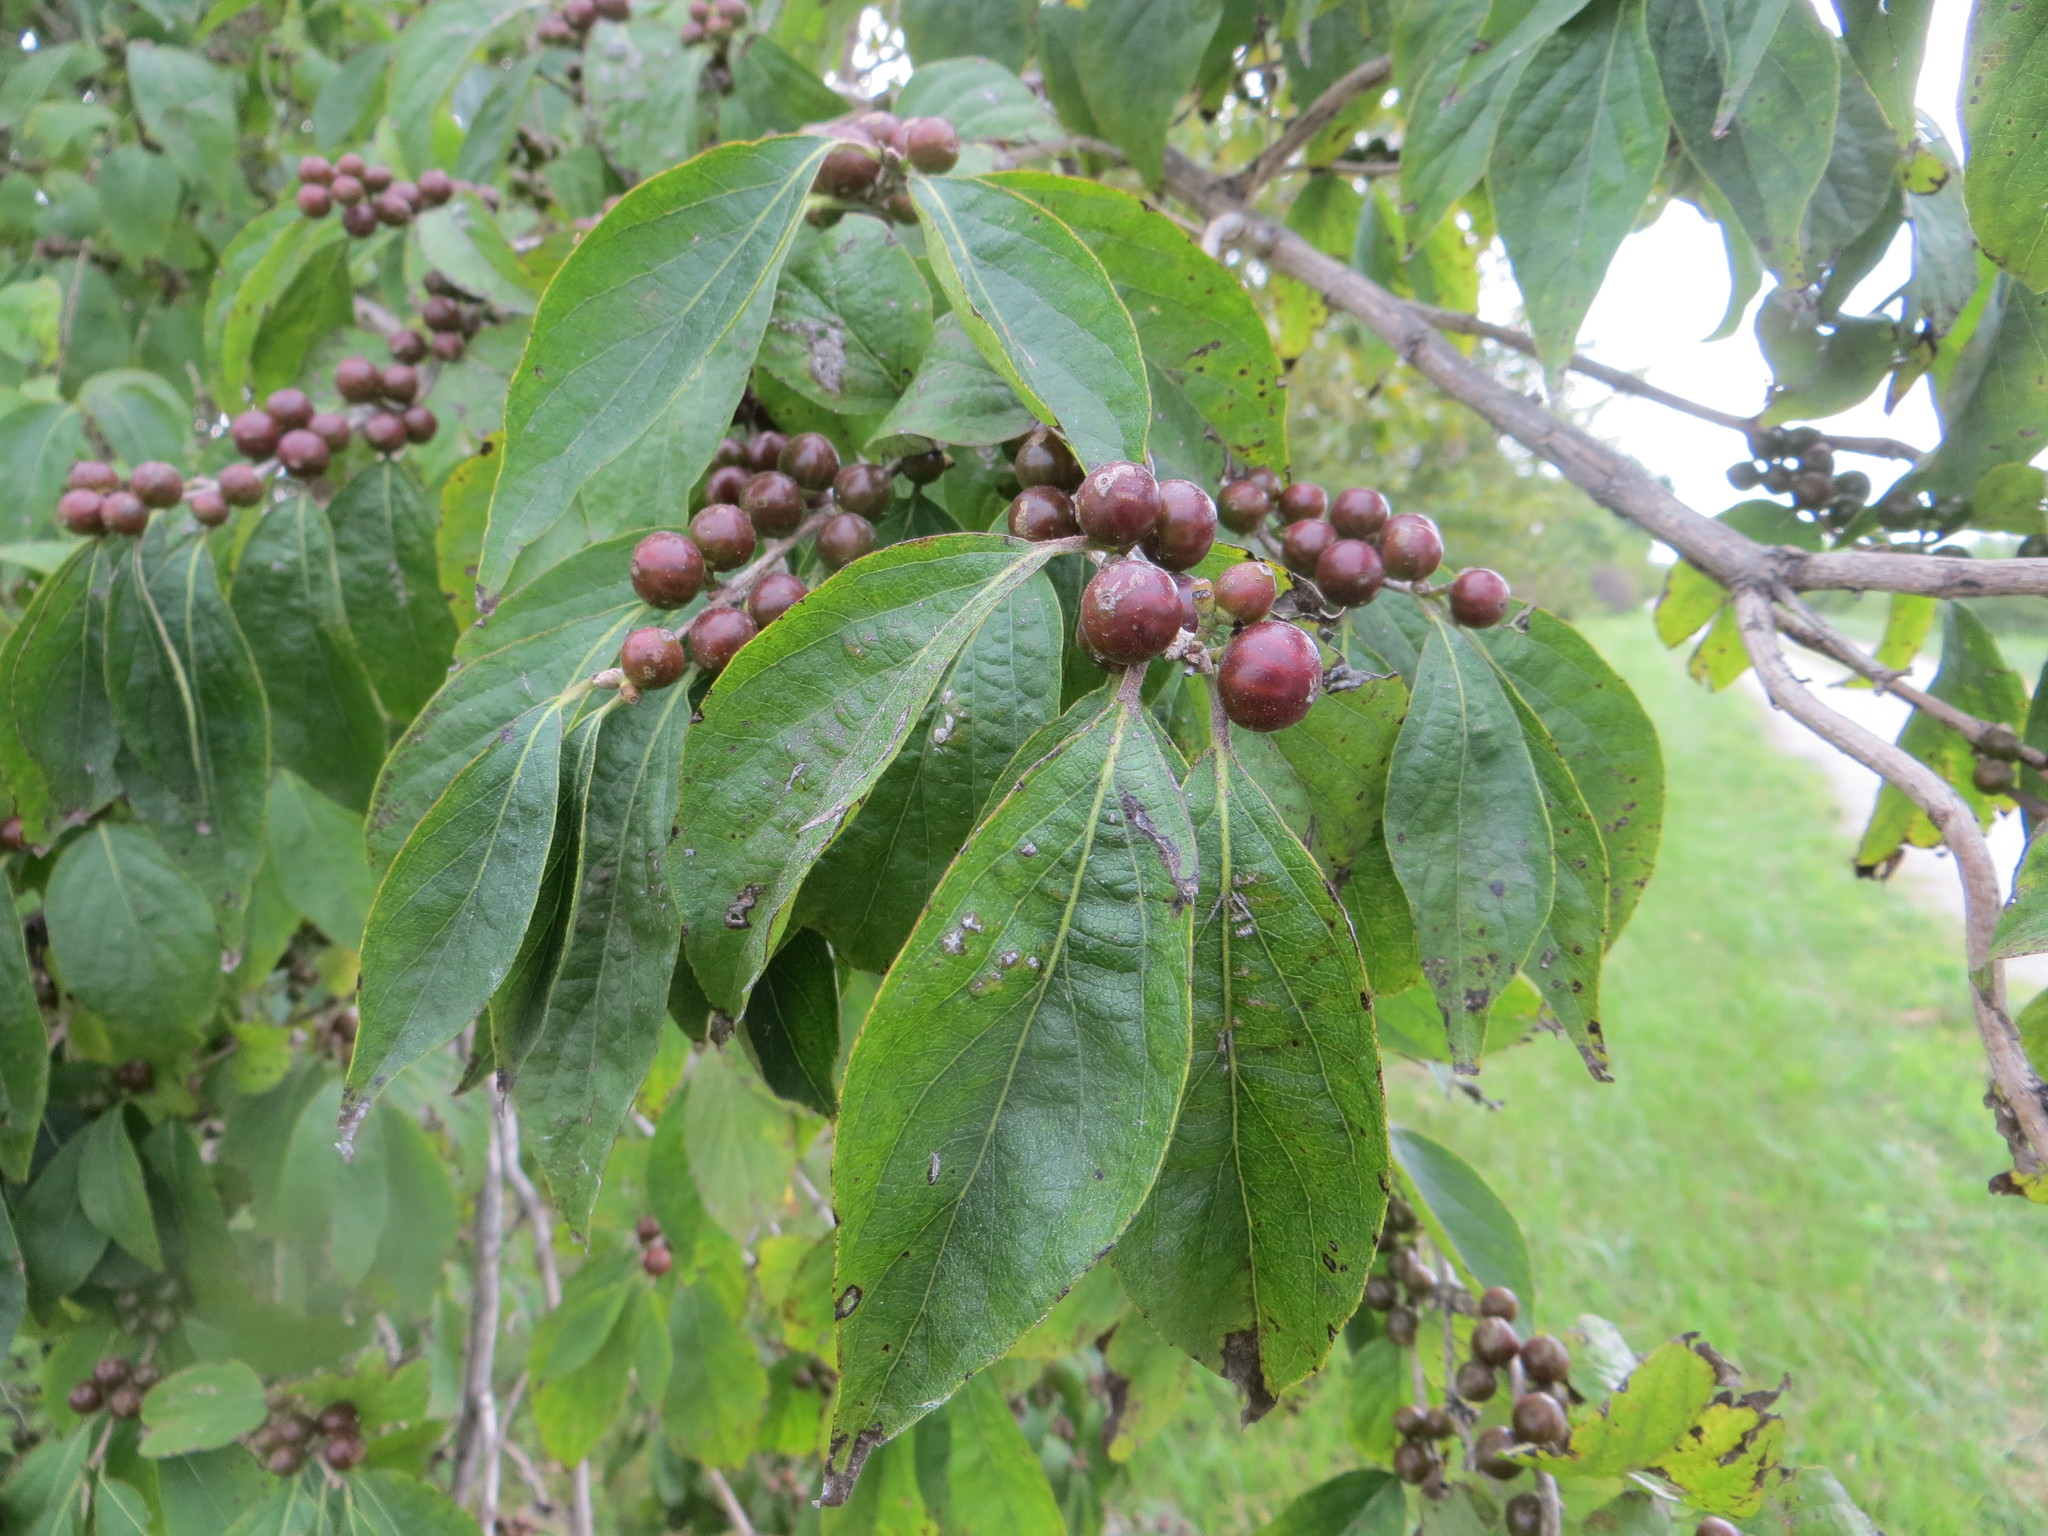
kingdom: Plantae
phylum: Tracheophyta
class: Magnoliopsida
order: Dipsacales
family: Caprifoliaceae
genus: Lonicera
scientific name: Lonicera maackii
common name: Amur honeysuckle
